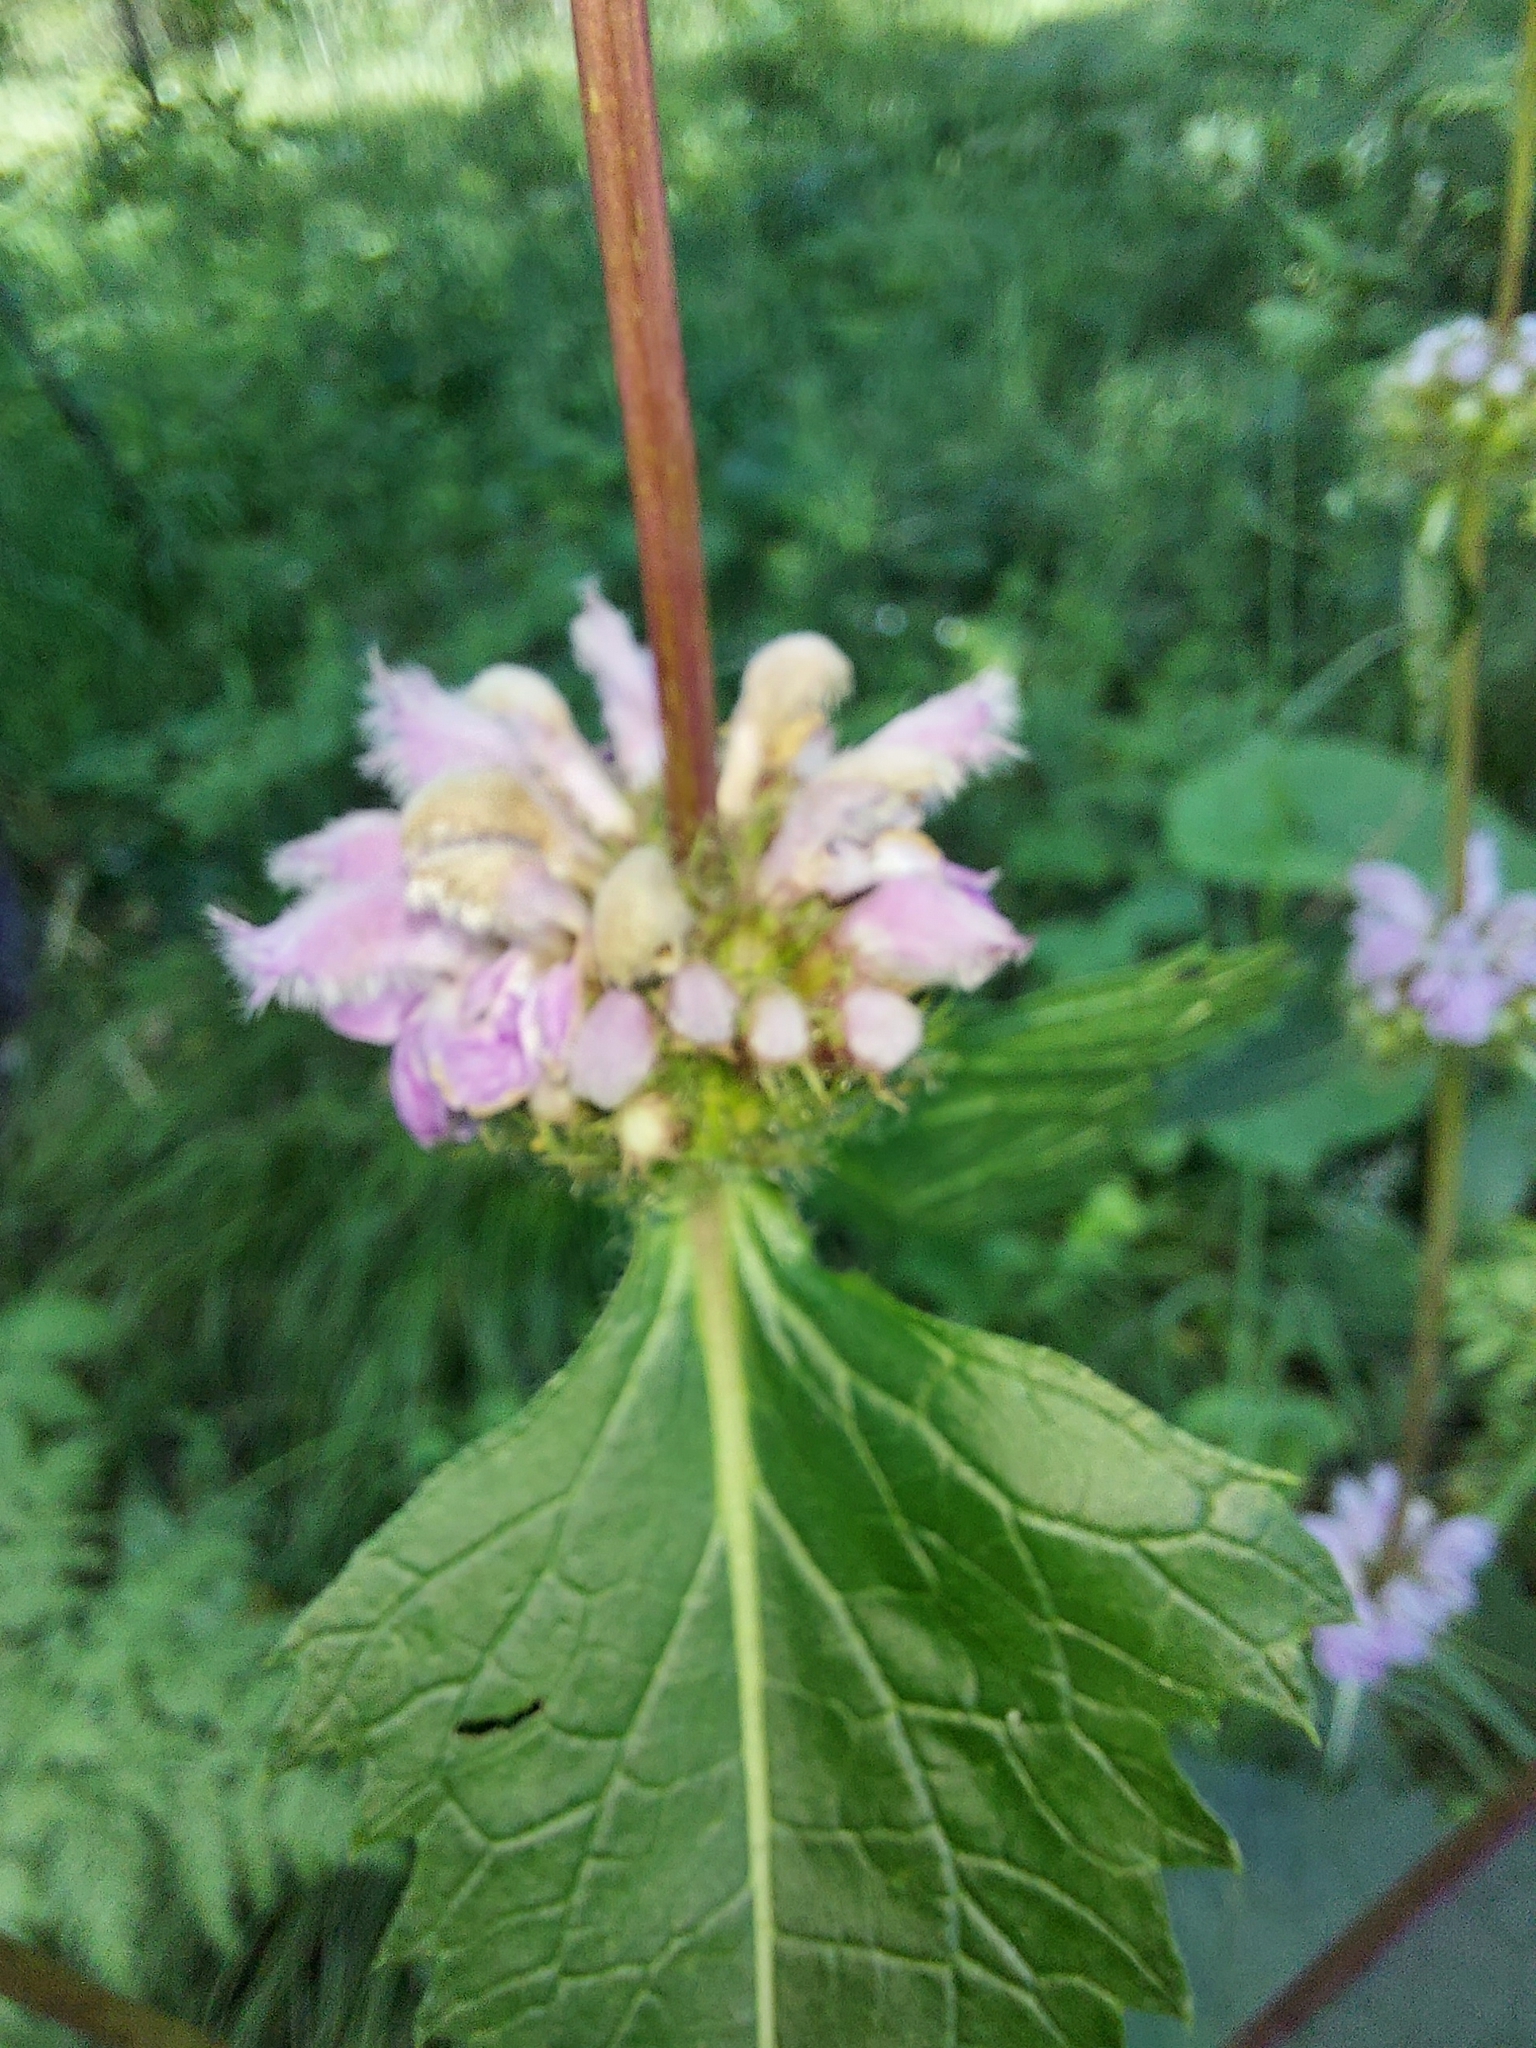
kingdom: Plantae
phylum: Tracheophyta
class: Magnoliopsida
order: Lamiales
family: Lamiaceae
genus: Phlomoides
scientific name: Phlomoides tuberosa
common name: Tuberous jerusalem sage
